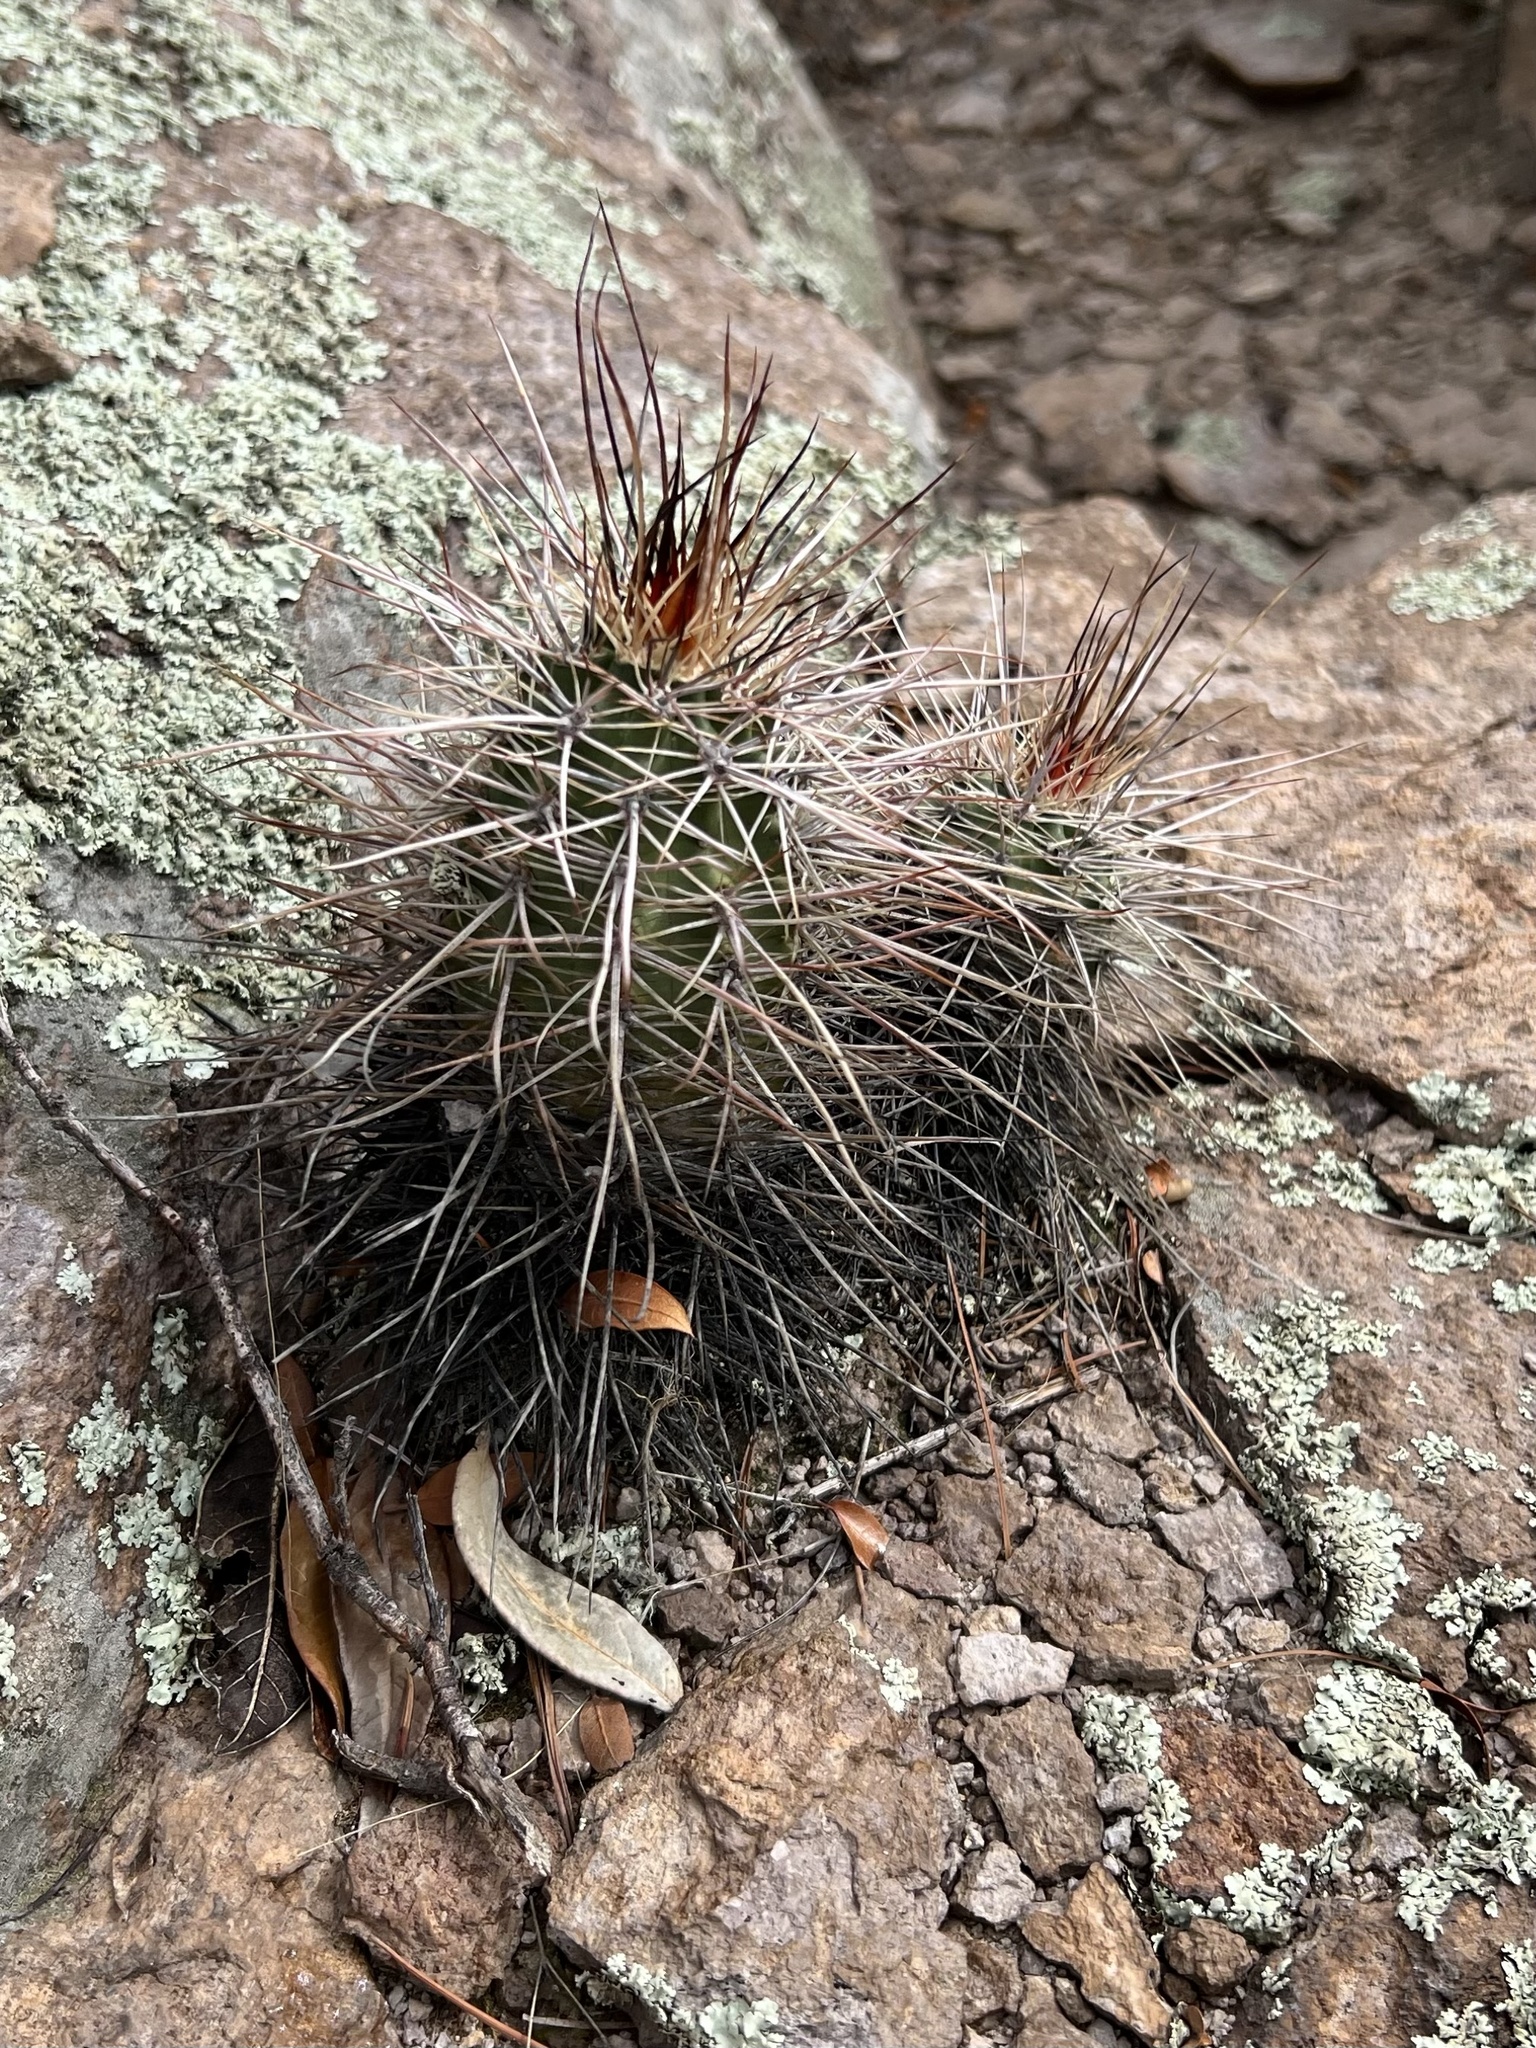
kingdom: Plantae
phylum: Tracheophyta
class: Magnoliopsida
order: Caryophyllales
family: Cactaceae
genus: Echinocereus
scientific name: Echinocereus arizonicus
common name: Arizona hedgehog cactus
